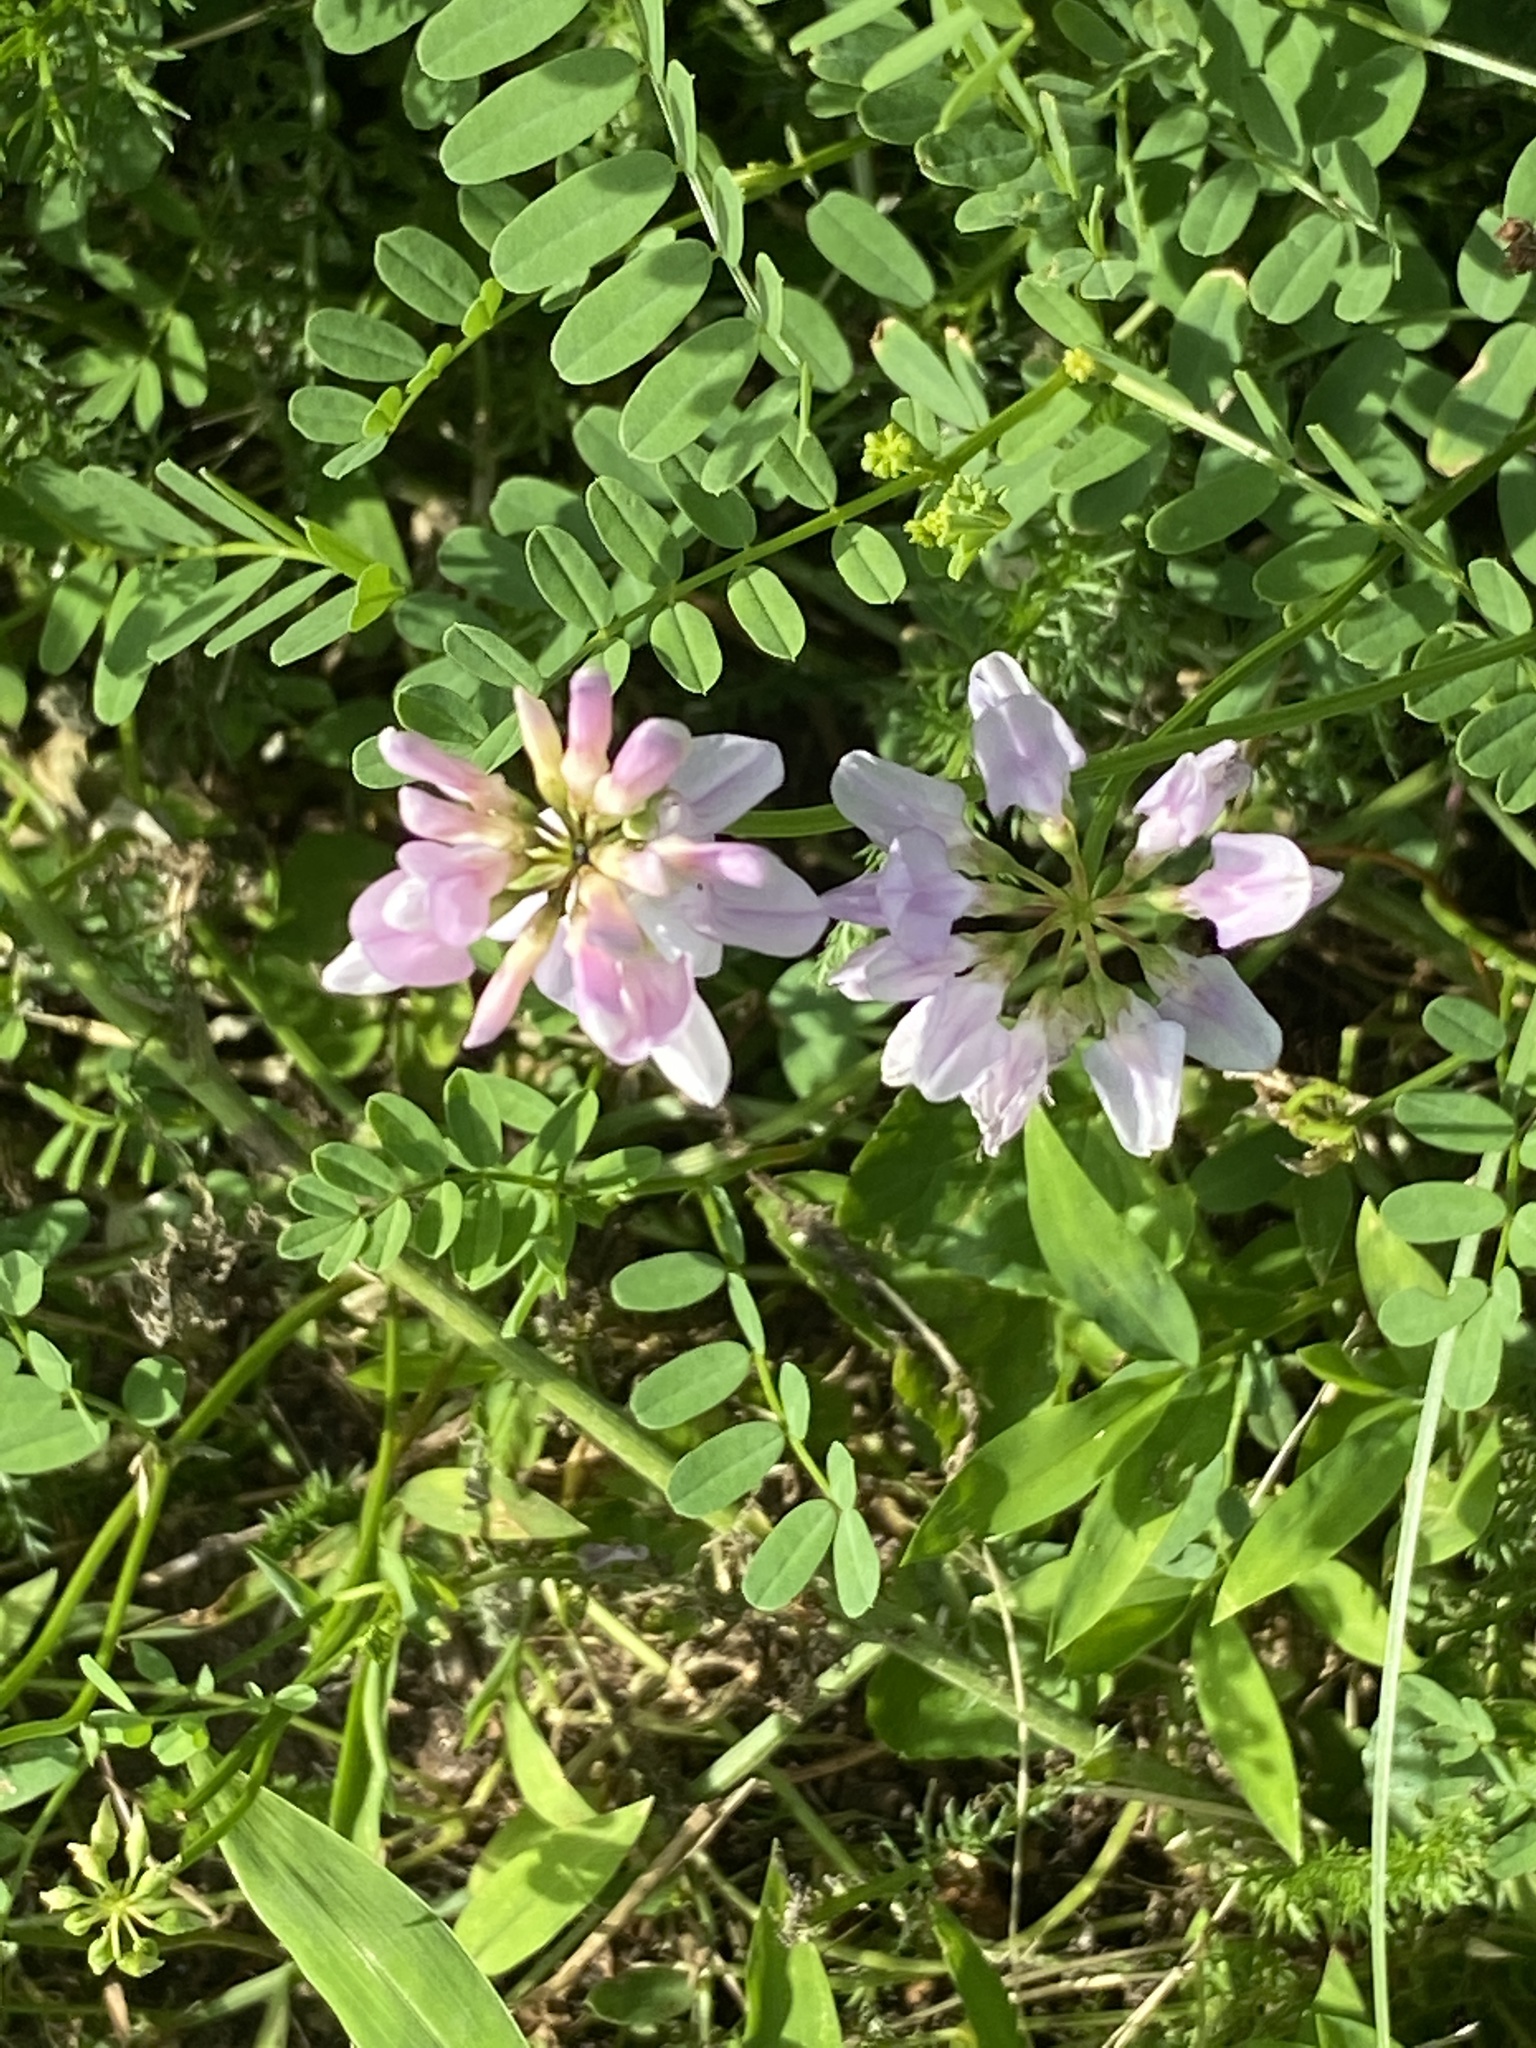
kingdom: Plantae
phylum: Tracheophyta
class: Magnoliopsida
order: Fabales
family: Fabaceae
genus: Coronilla
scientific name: Coronilla varia
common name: Crownvetch
